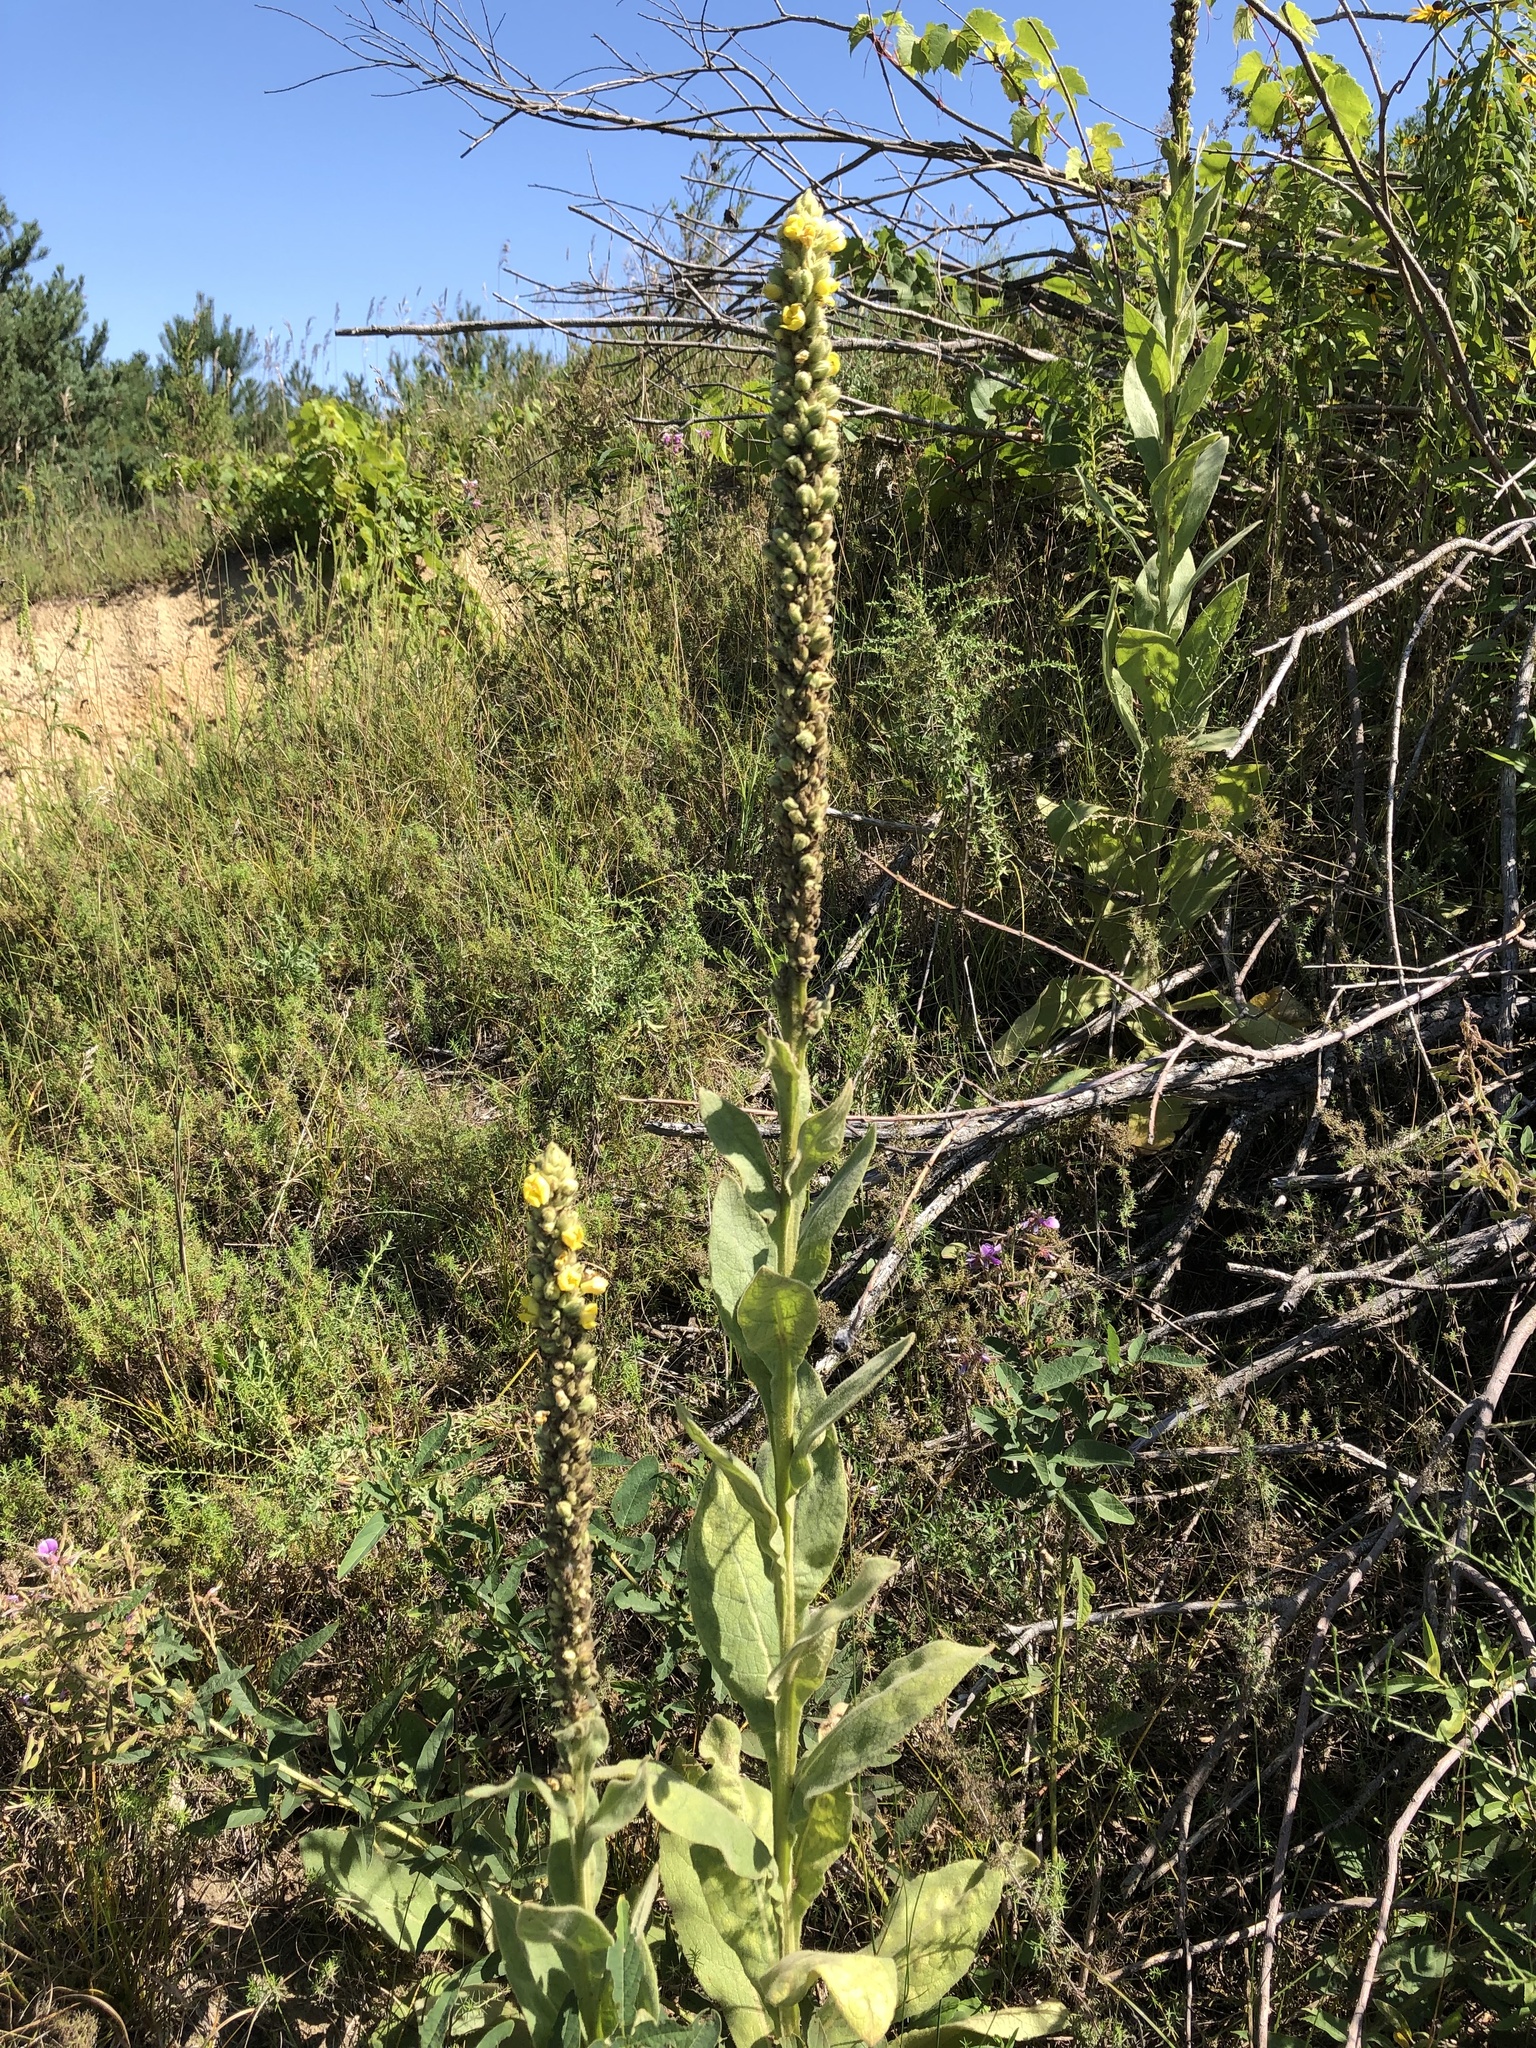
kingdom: Plantae
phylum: Tracheophyta
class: Magnoliopsida
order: Lamiales
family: Scrophulariaceae
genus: Verbascum
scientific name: Verbascum thapsus
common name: Common mullein
